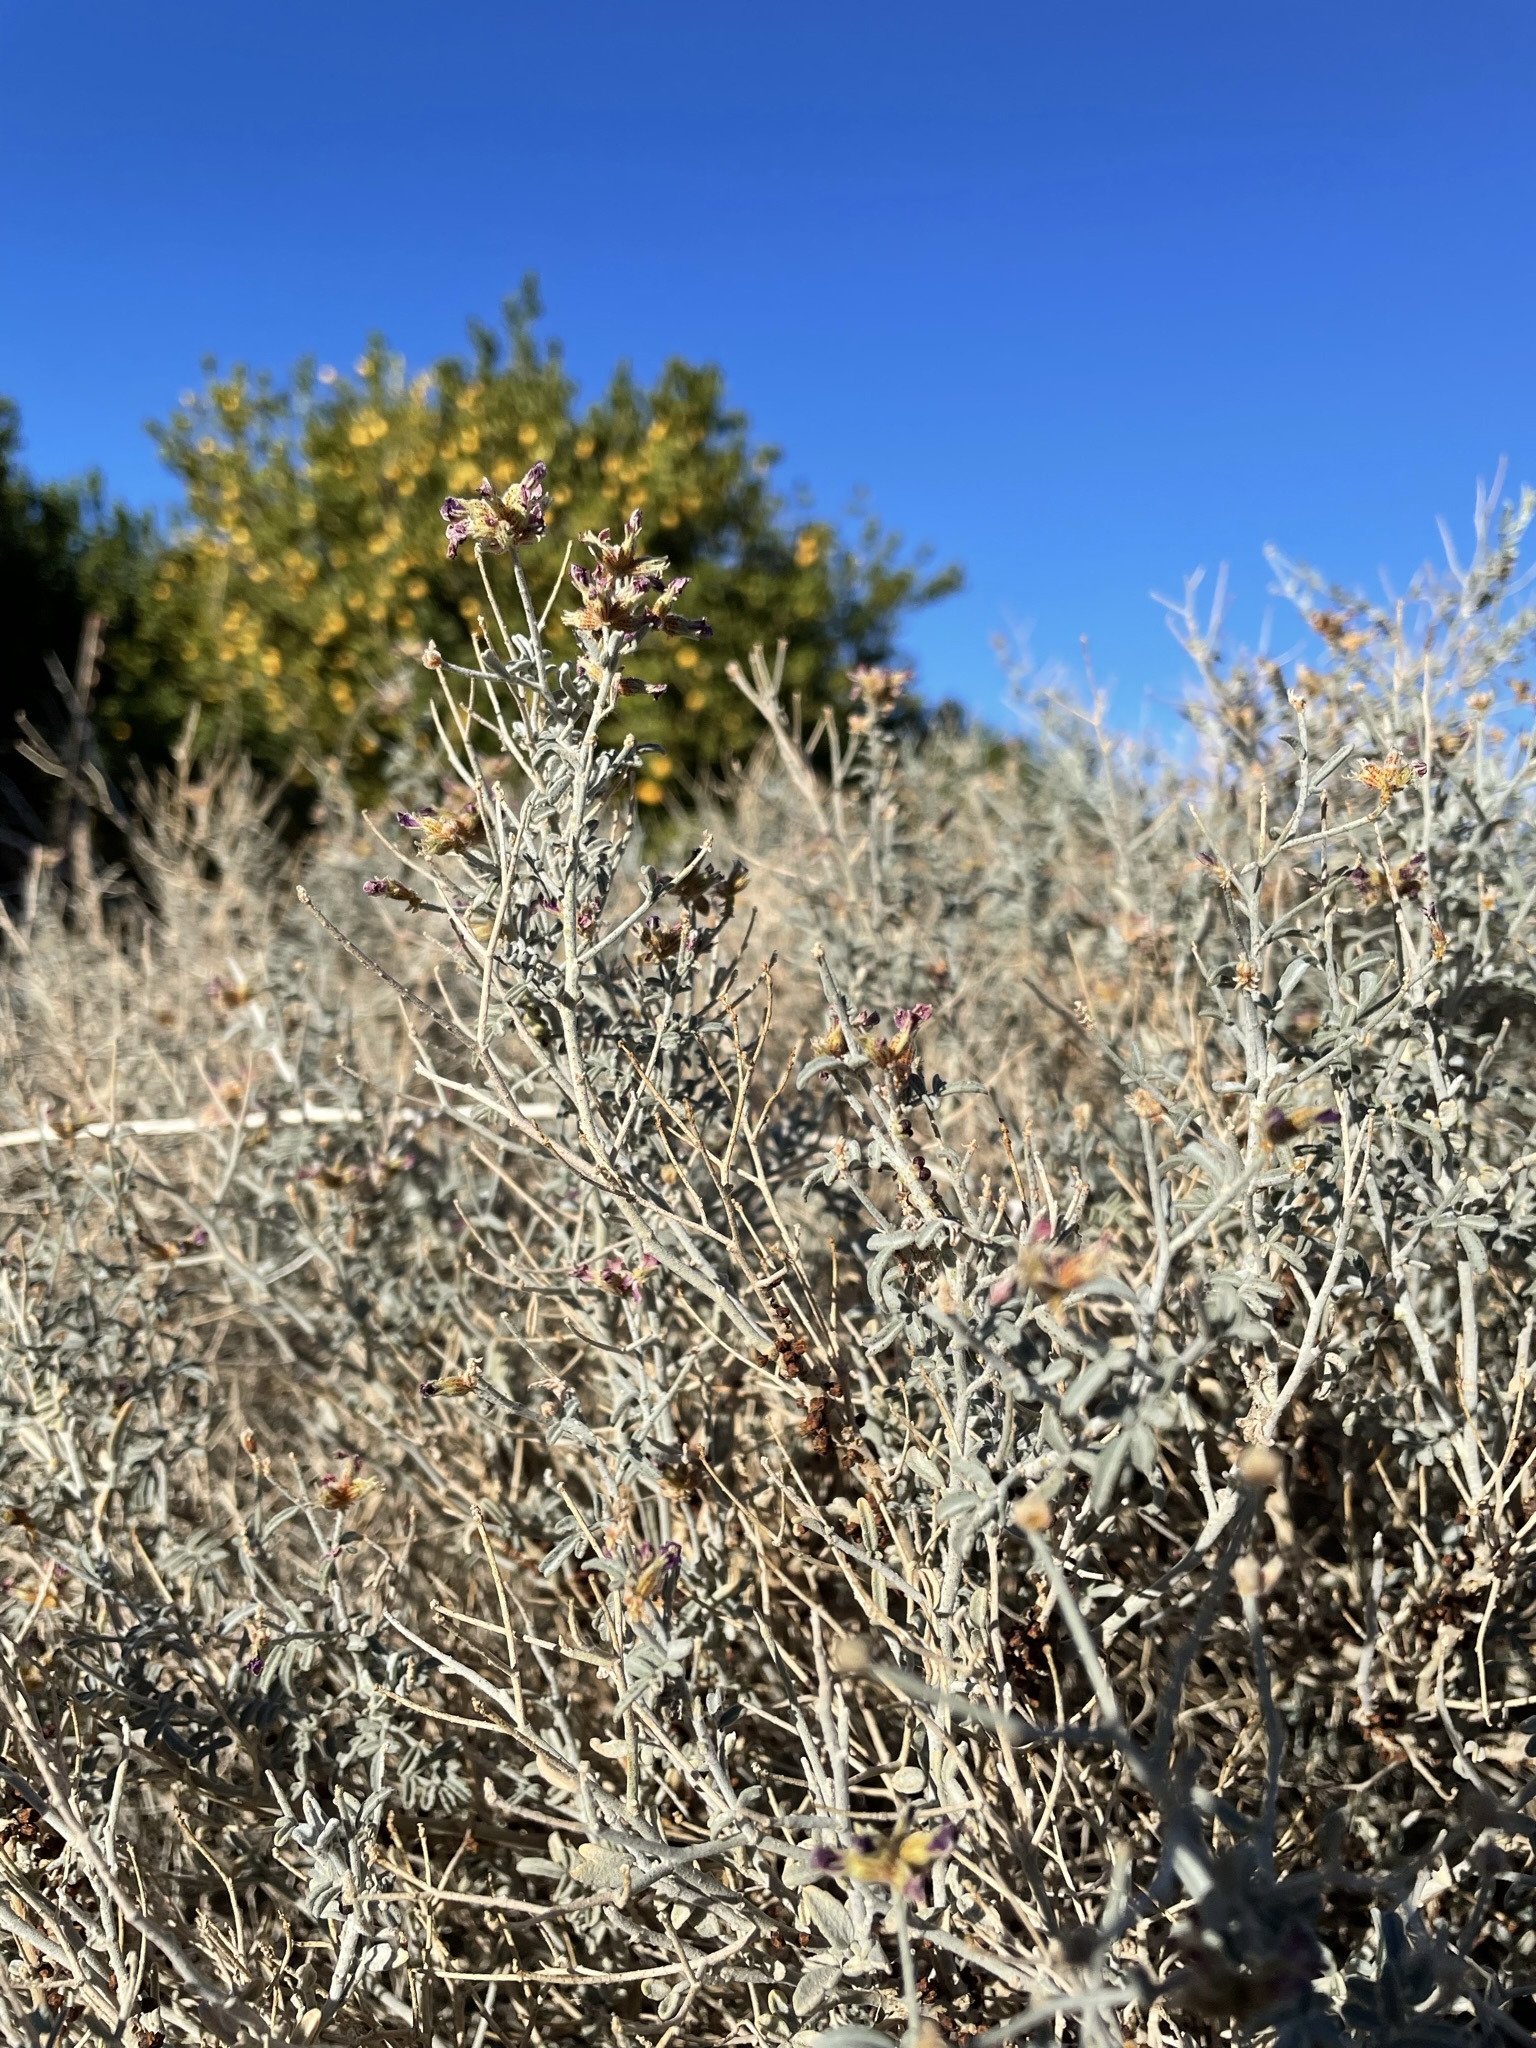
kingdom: Plantae
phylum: Tracheophyta
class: Magnoliopsida
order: Cucurbitales
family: Apodanthaceae
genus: Pilostyles
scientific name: Pilostyles thurberi
